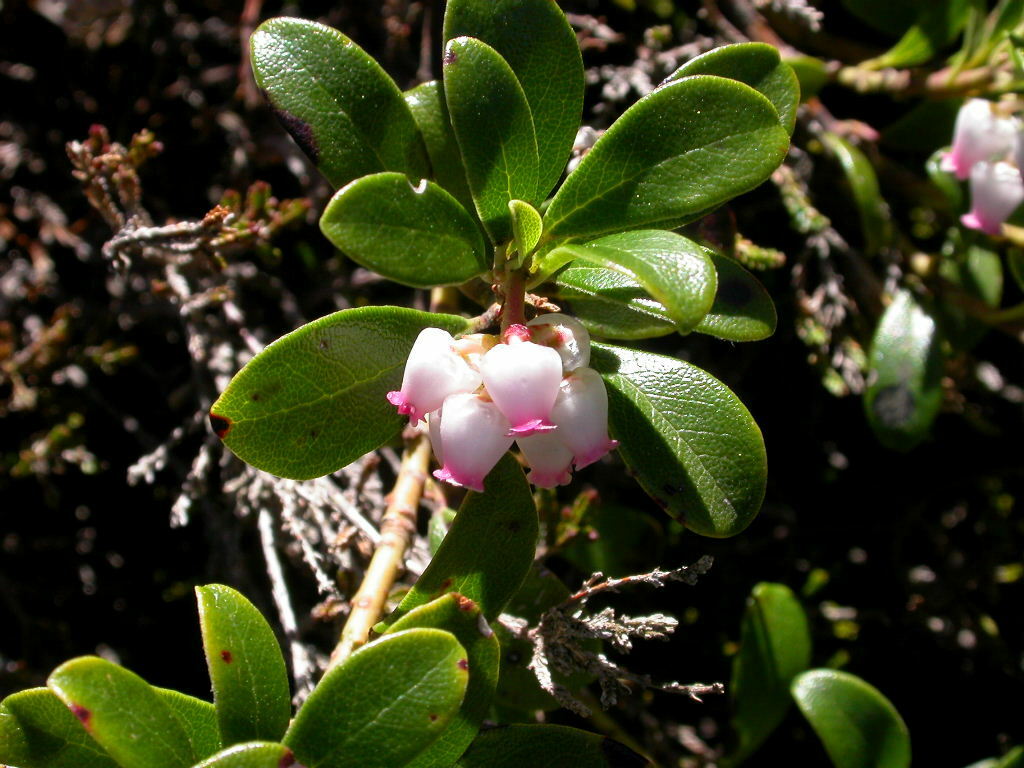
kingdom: Plantae
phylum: Tracheophyta
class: Magnoliopsida
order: Ericales
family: Ericaceae
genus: Arctostaphylos
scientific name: Arctostaphylos uva-ursi
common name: Bearberry
